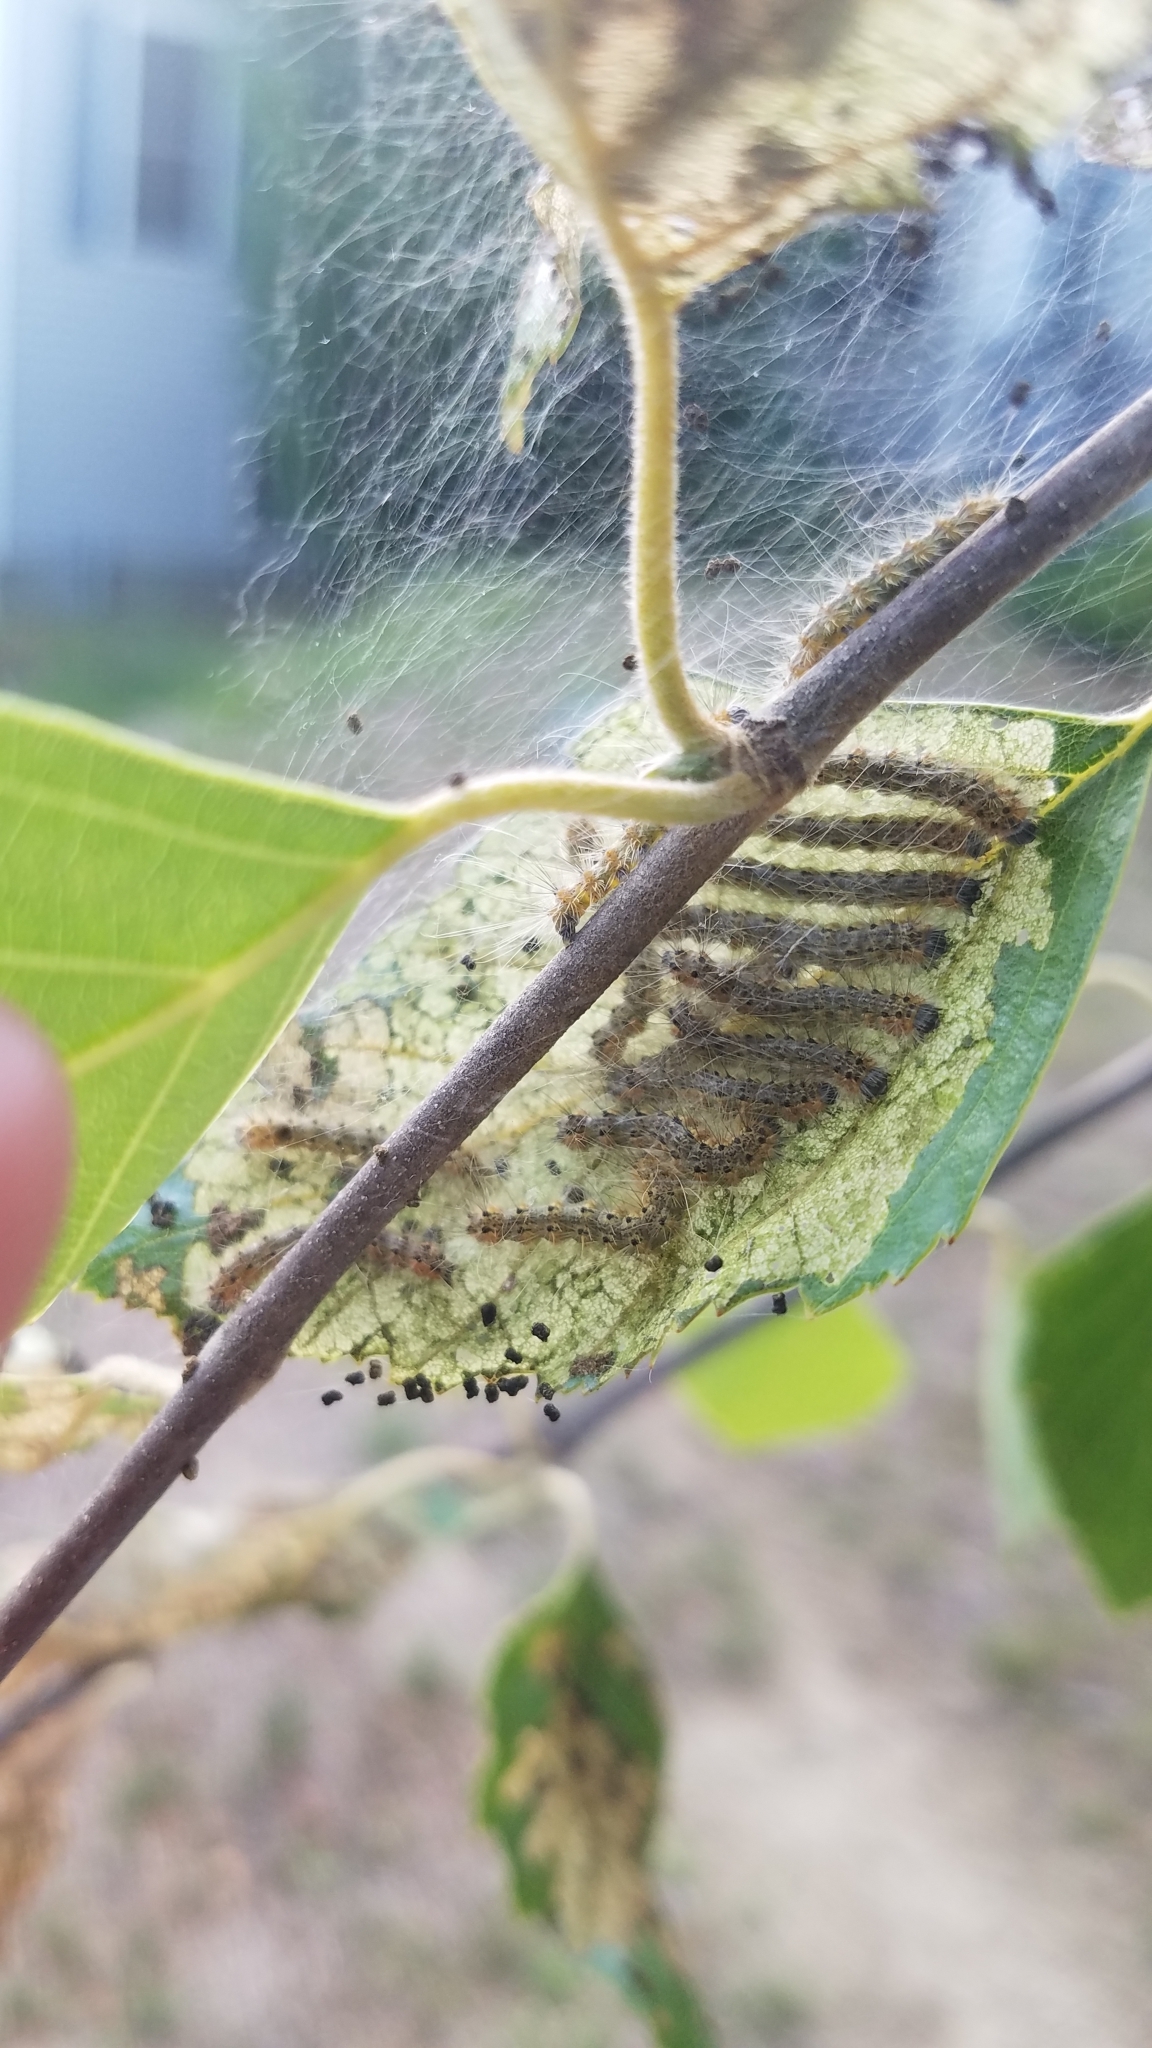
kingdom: Animalia
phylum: Arthropoda
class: Insecta
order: Lepidoptera
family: Erebidae
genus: Hyphantria
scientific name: Hyphantria cunea
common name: American white moth
